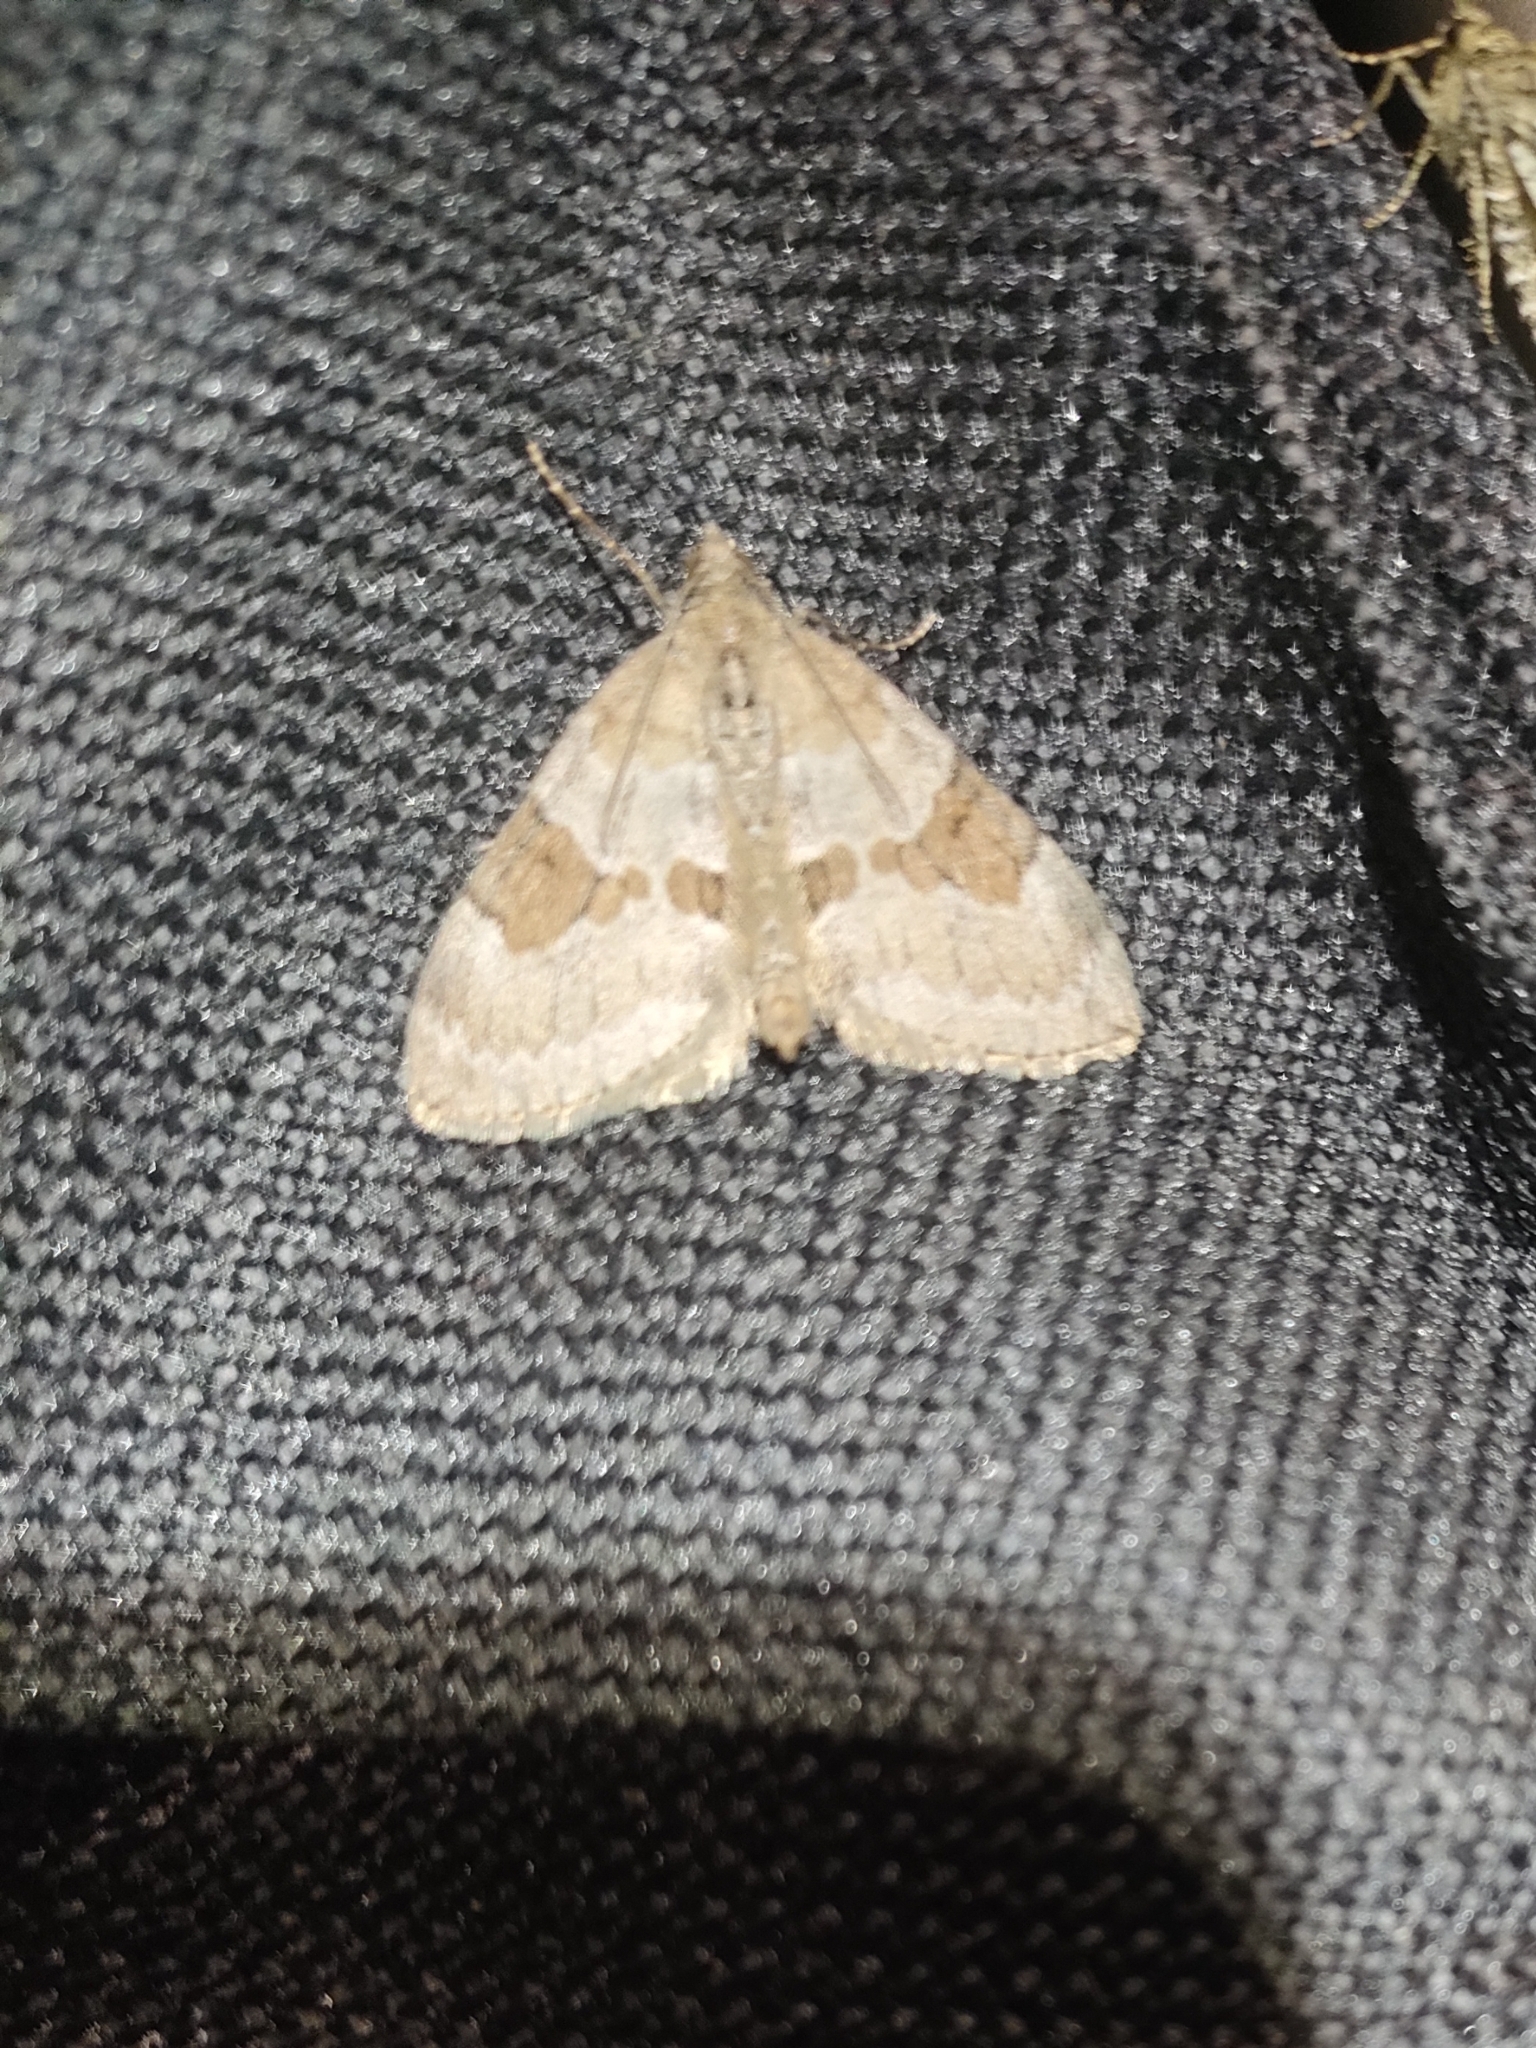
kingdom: Animalia
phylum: Arthropoda
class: Insecta
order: Lepidoptera
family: Geometridae
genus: Thera
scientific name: Thera obeliscata
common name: Grey pine carpet
